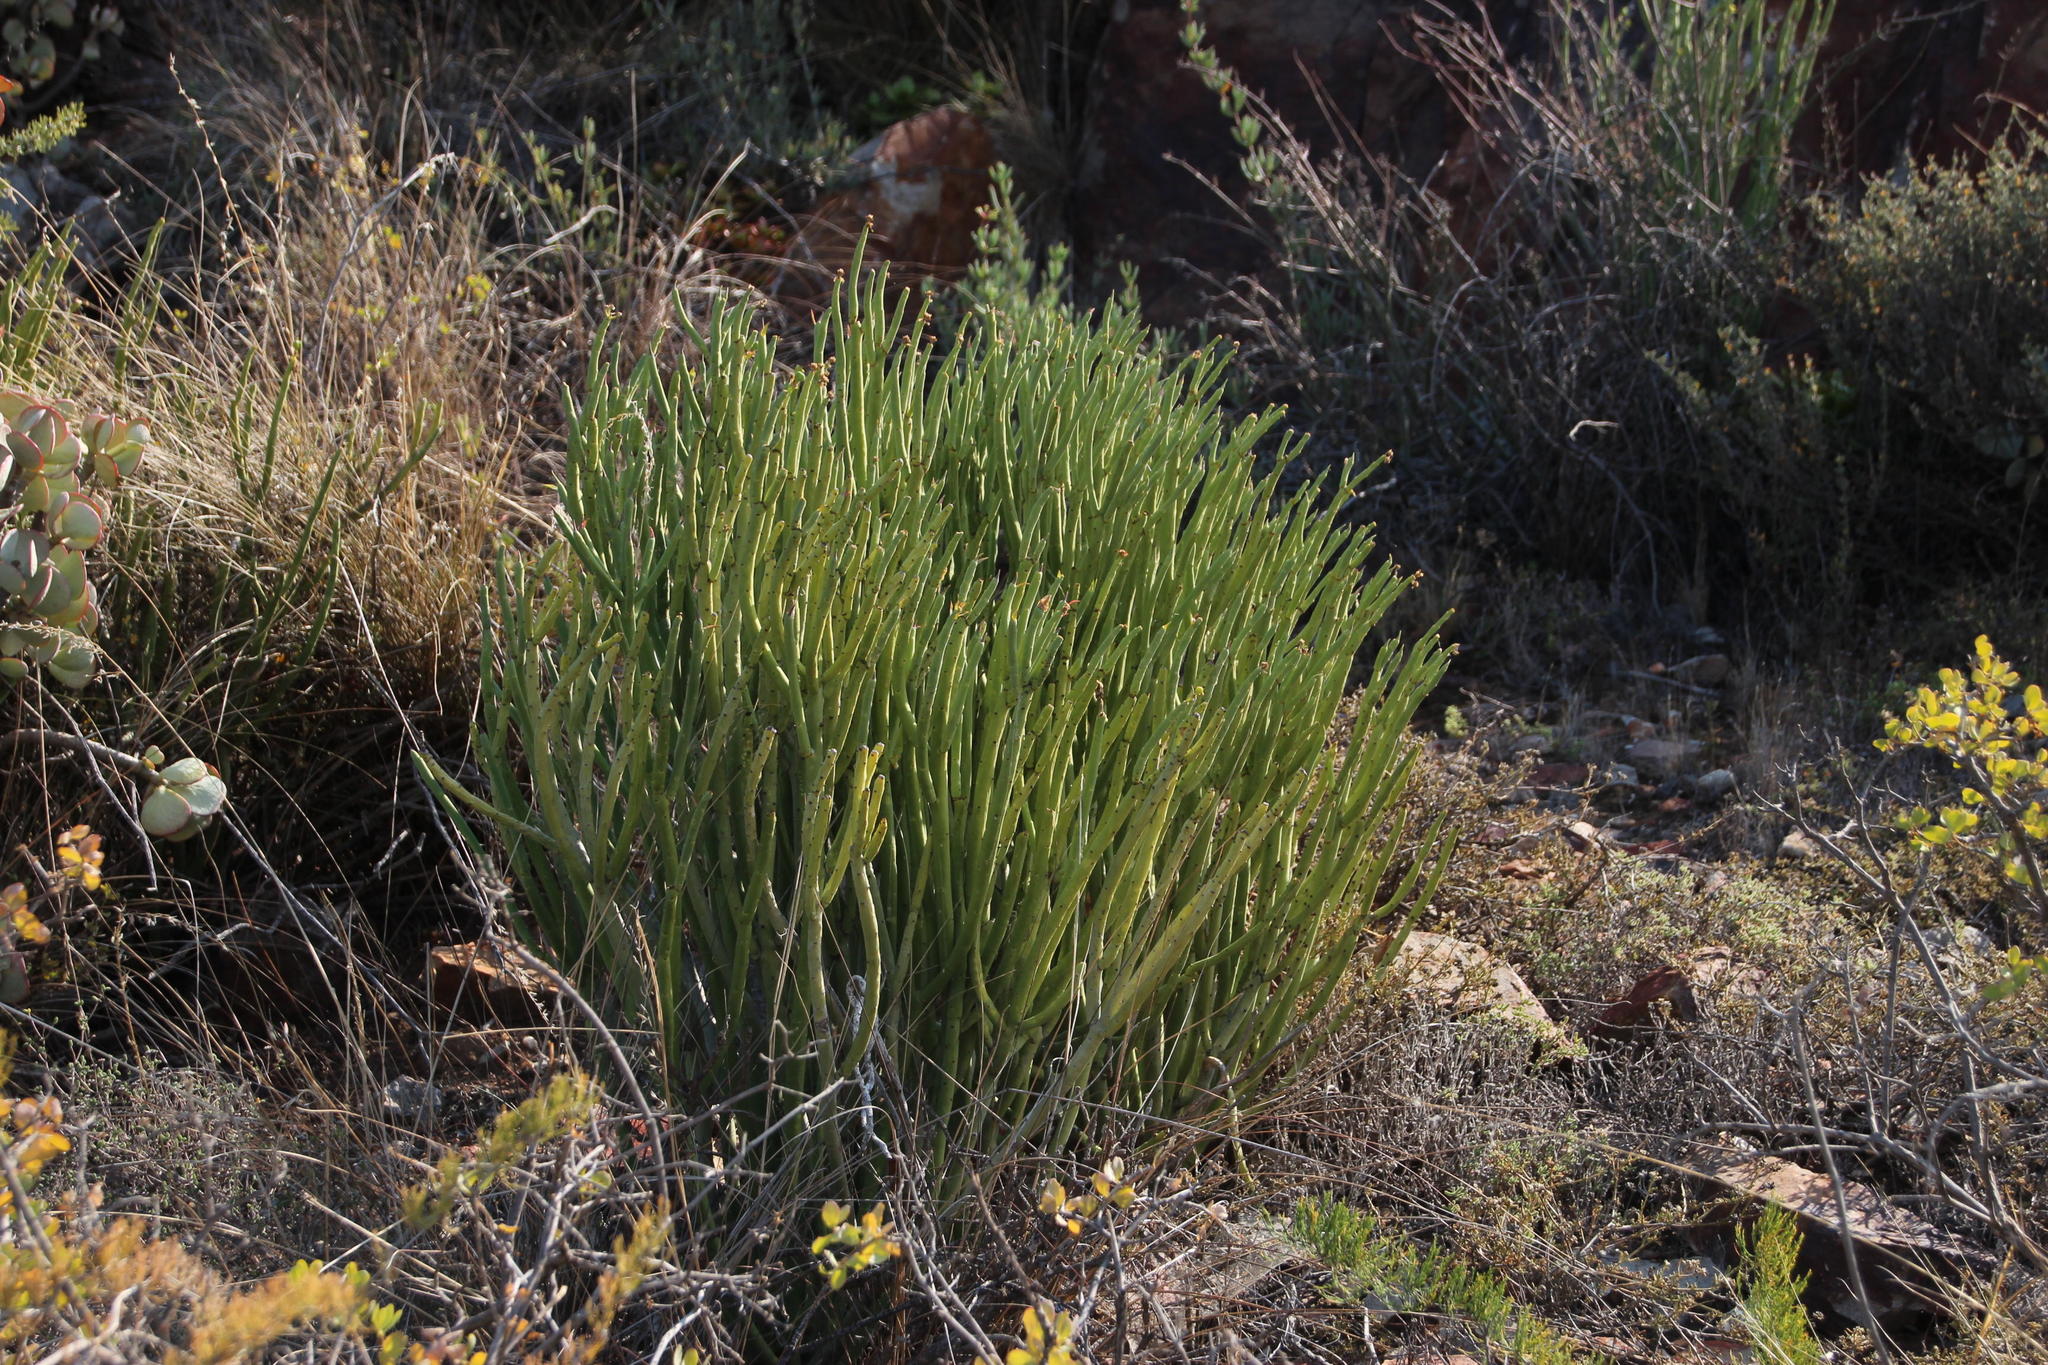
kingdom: Plantae
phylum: Tracheophyta
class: Magnoliopsida
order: Malpighiales
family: Euphorbiaceae
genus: Euphorbia
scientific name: Euphorbia mauritanica
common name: Jackal's-food
